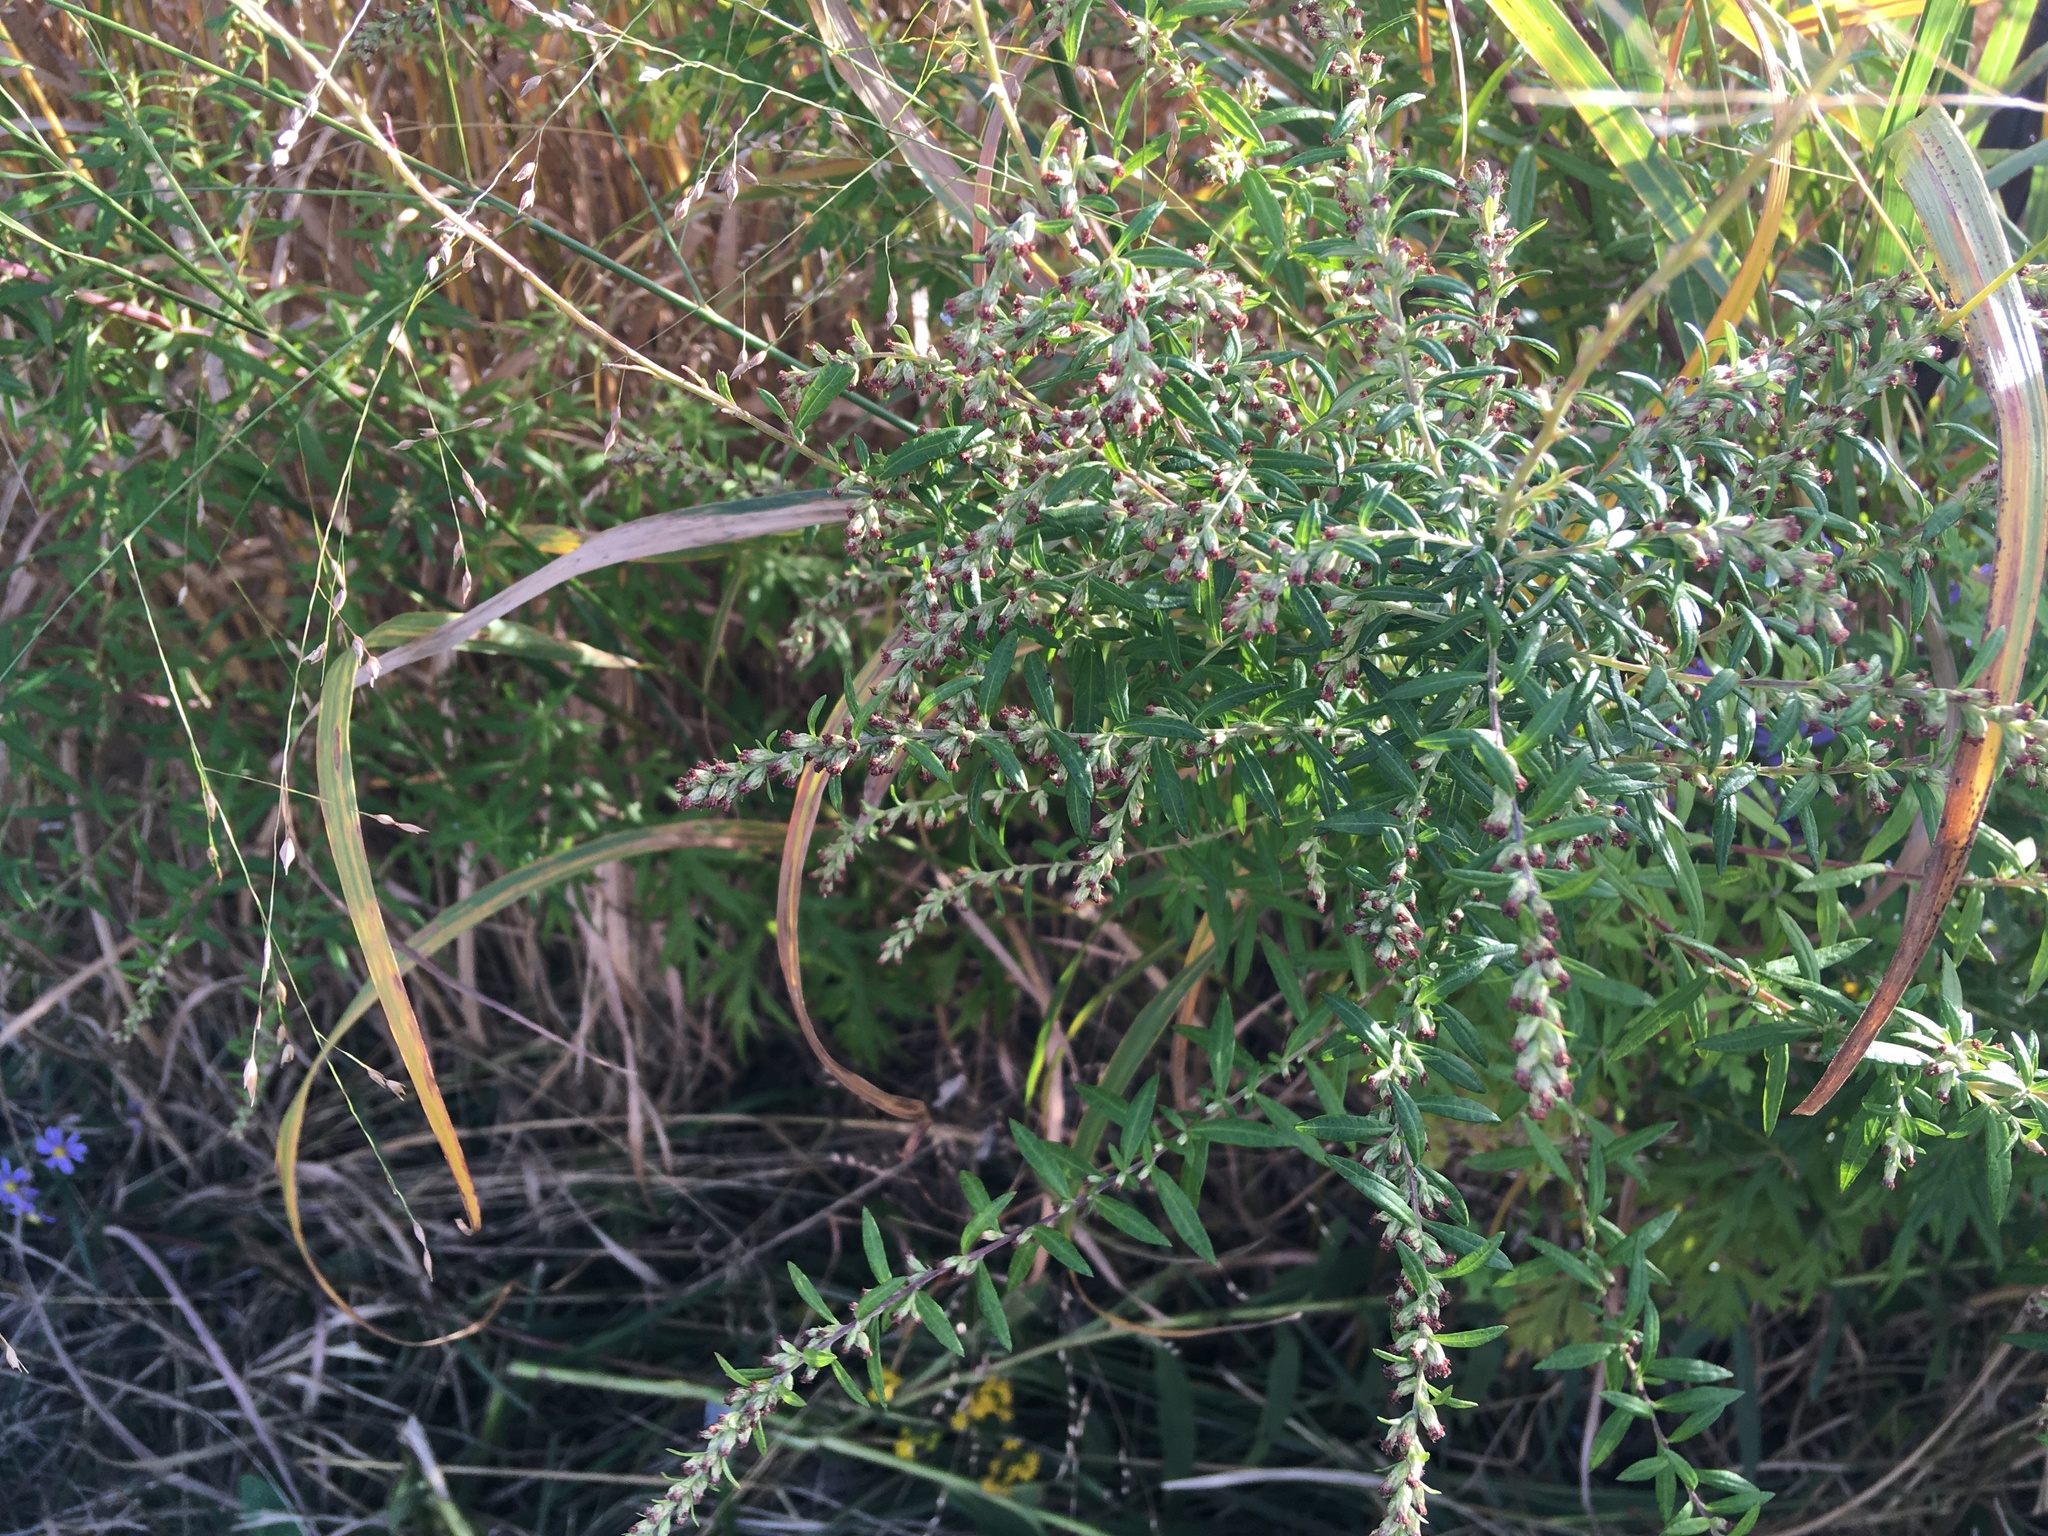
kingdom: Plantae
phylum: Tracheophyta
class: Magnoliopsida
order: Asterales
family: Asteraceae
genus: Artemisia
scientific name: Artemisia vulgaris
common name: Mugwort
